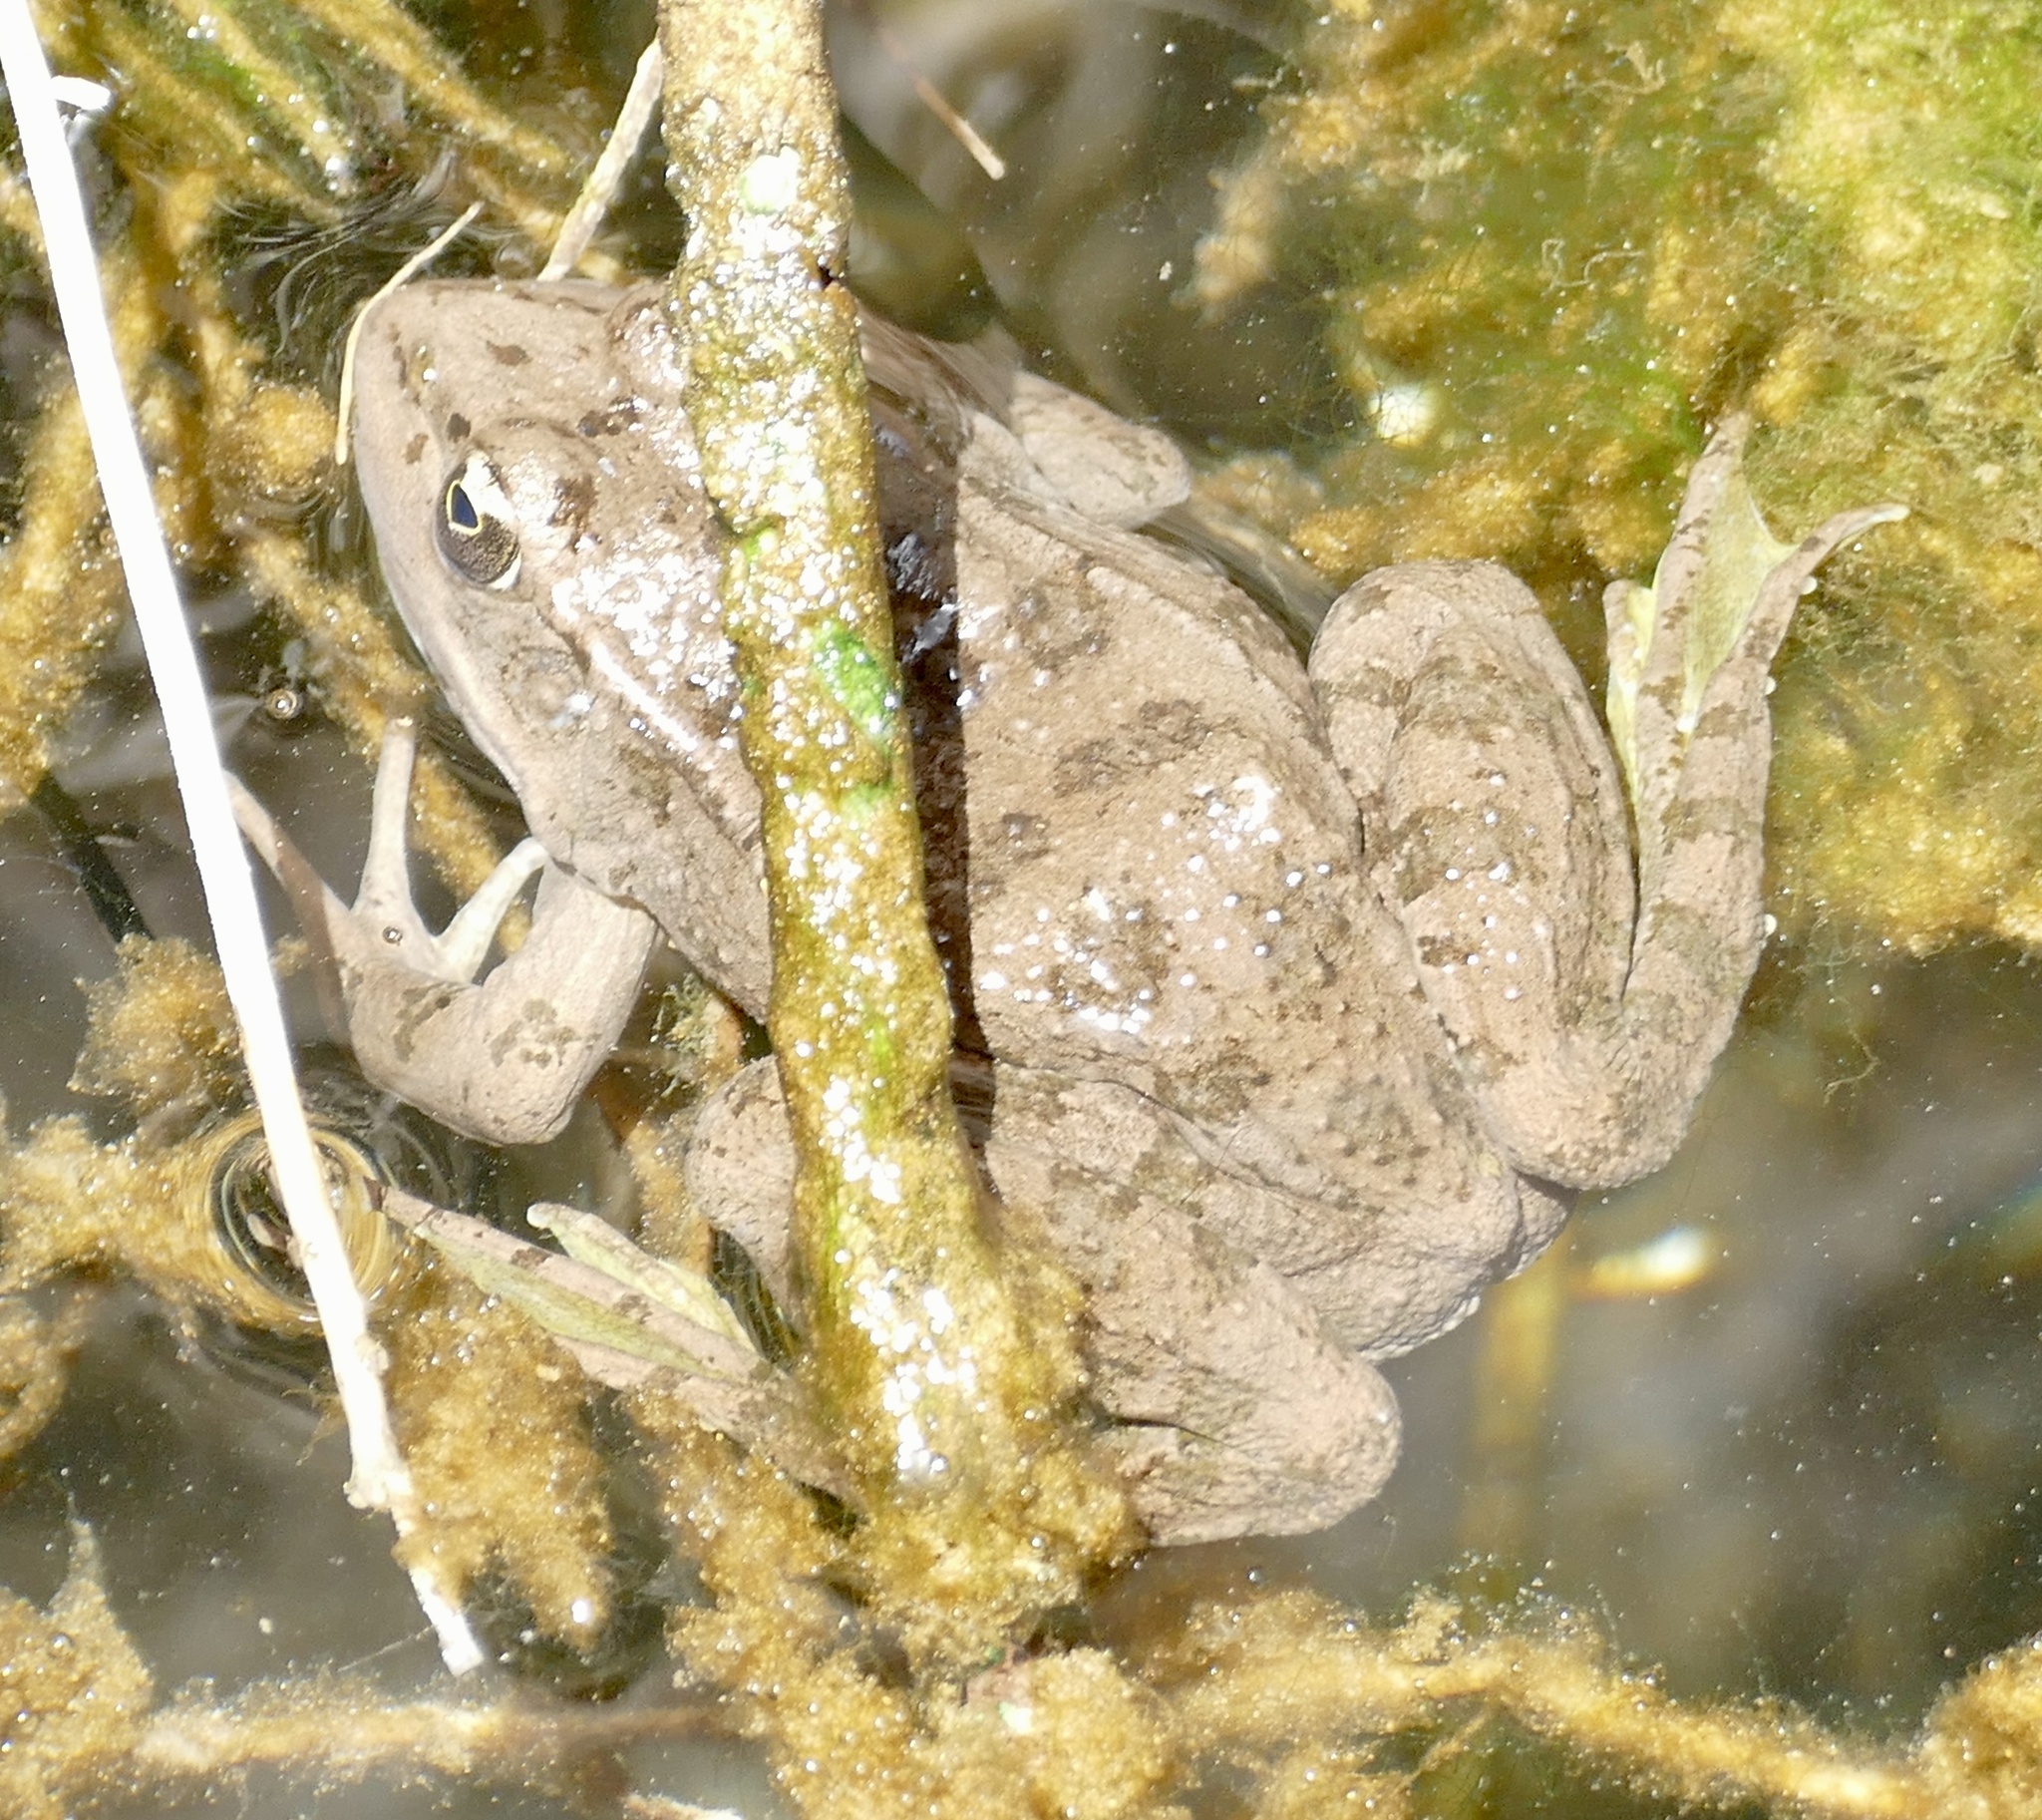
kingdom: Animalia
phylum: Chordata
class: Amphibia
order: Anura
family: Ranidae
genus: Pelophylax
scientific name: Pelophylax saharicus
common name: Sahara frog
